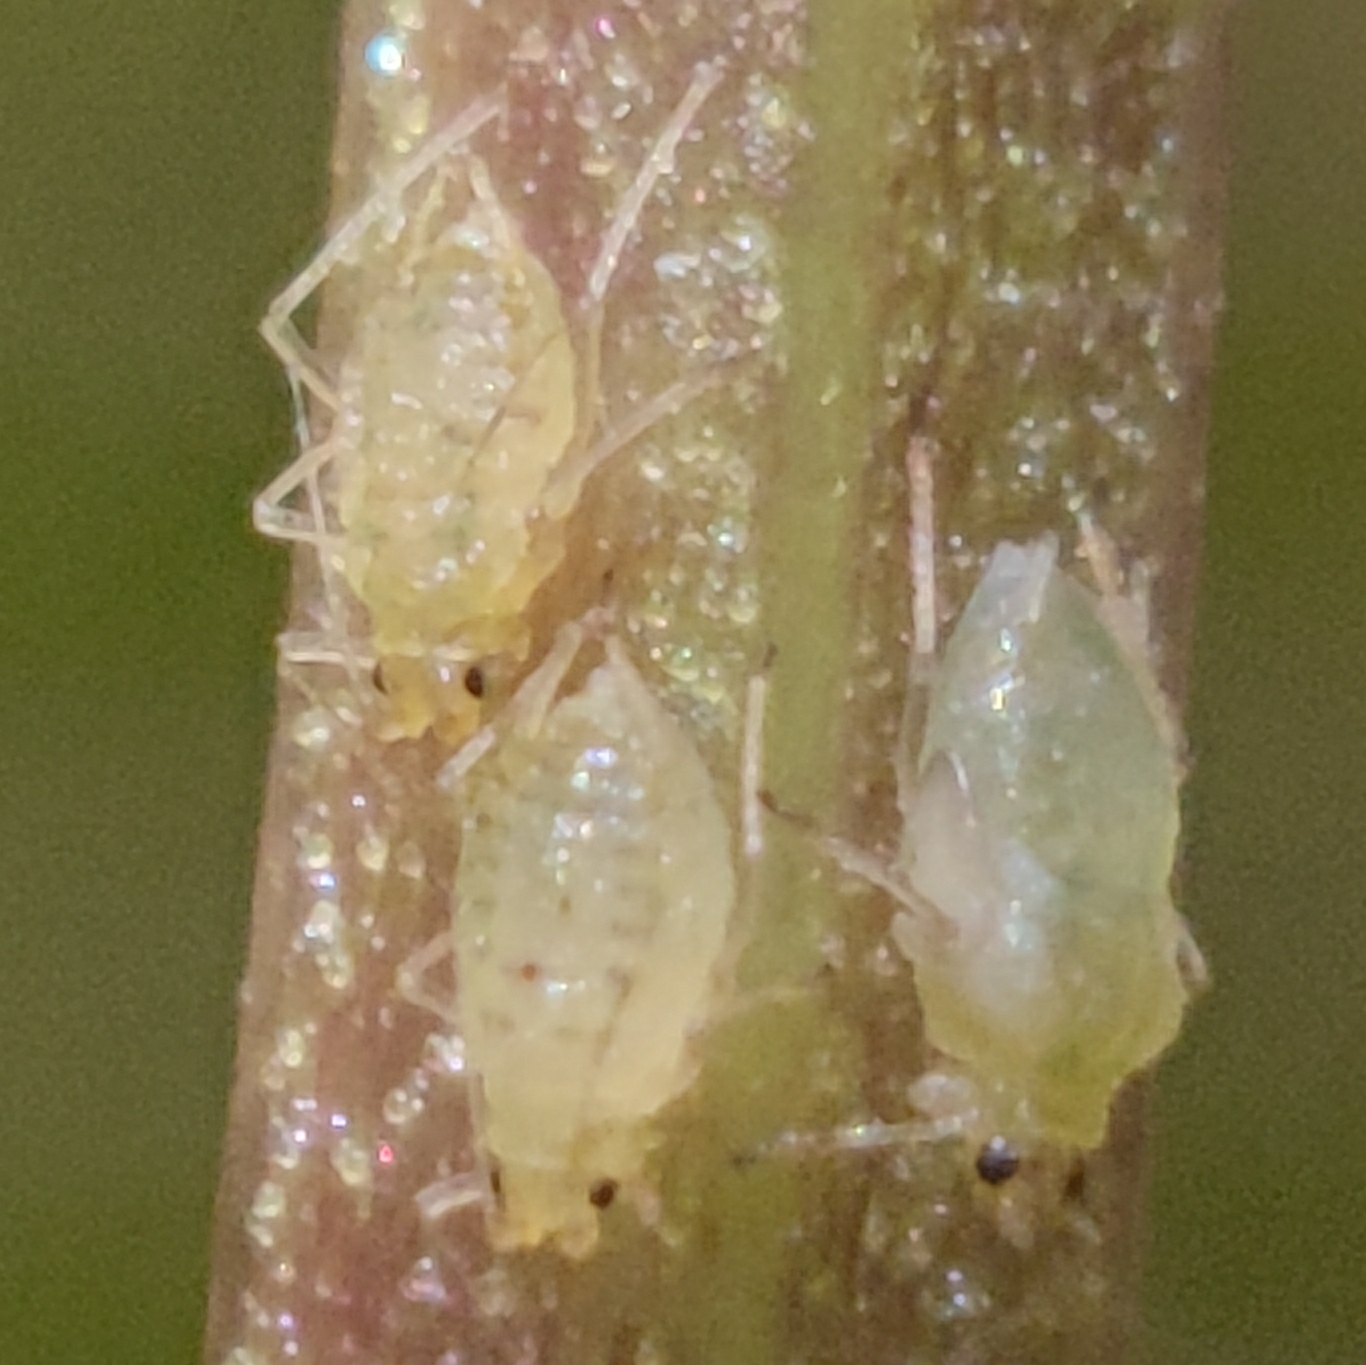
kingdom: Animalia
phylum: Arthropoda
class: Insecta
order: Hemiptera
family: Aphididae
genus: Myzus
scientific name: Myzus ornatus
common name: Ornate aphid
